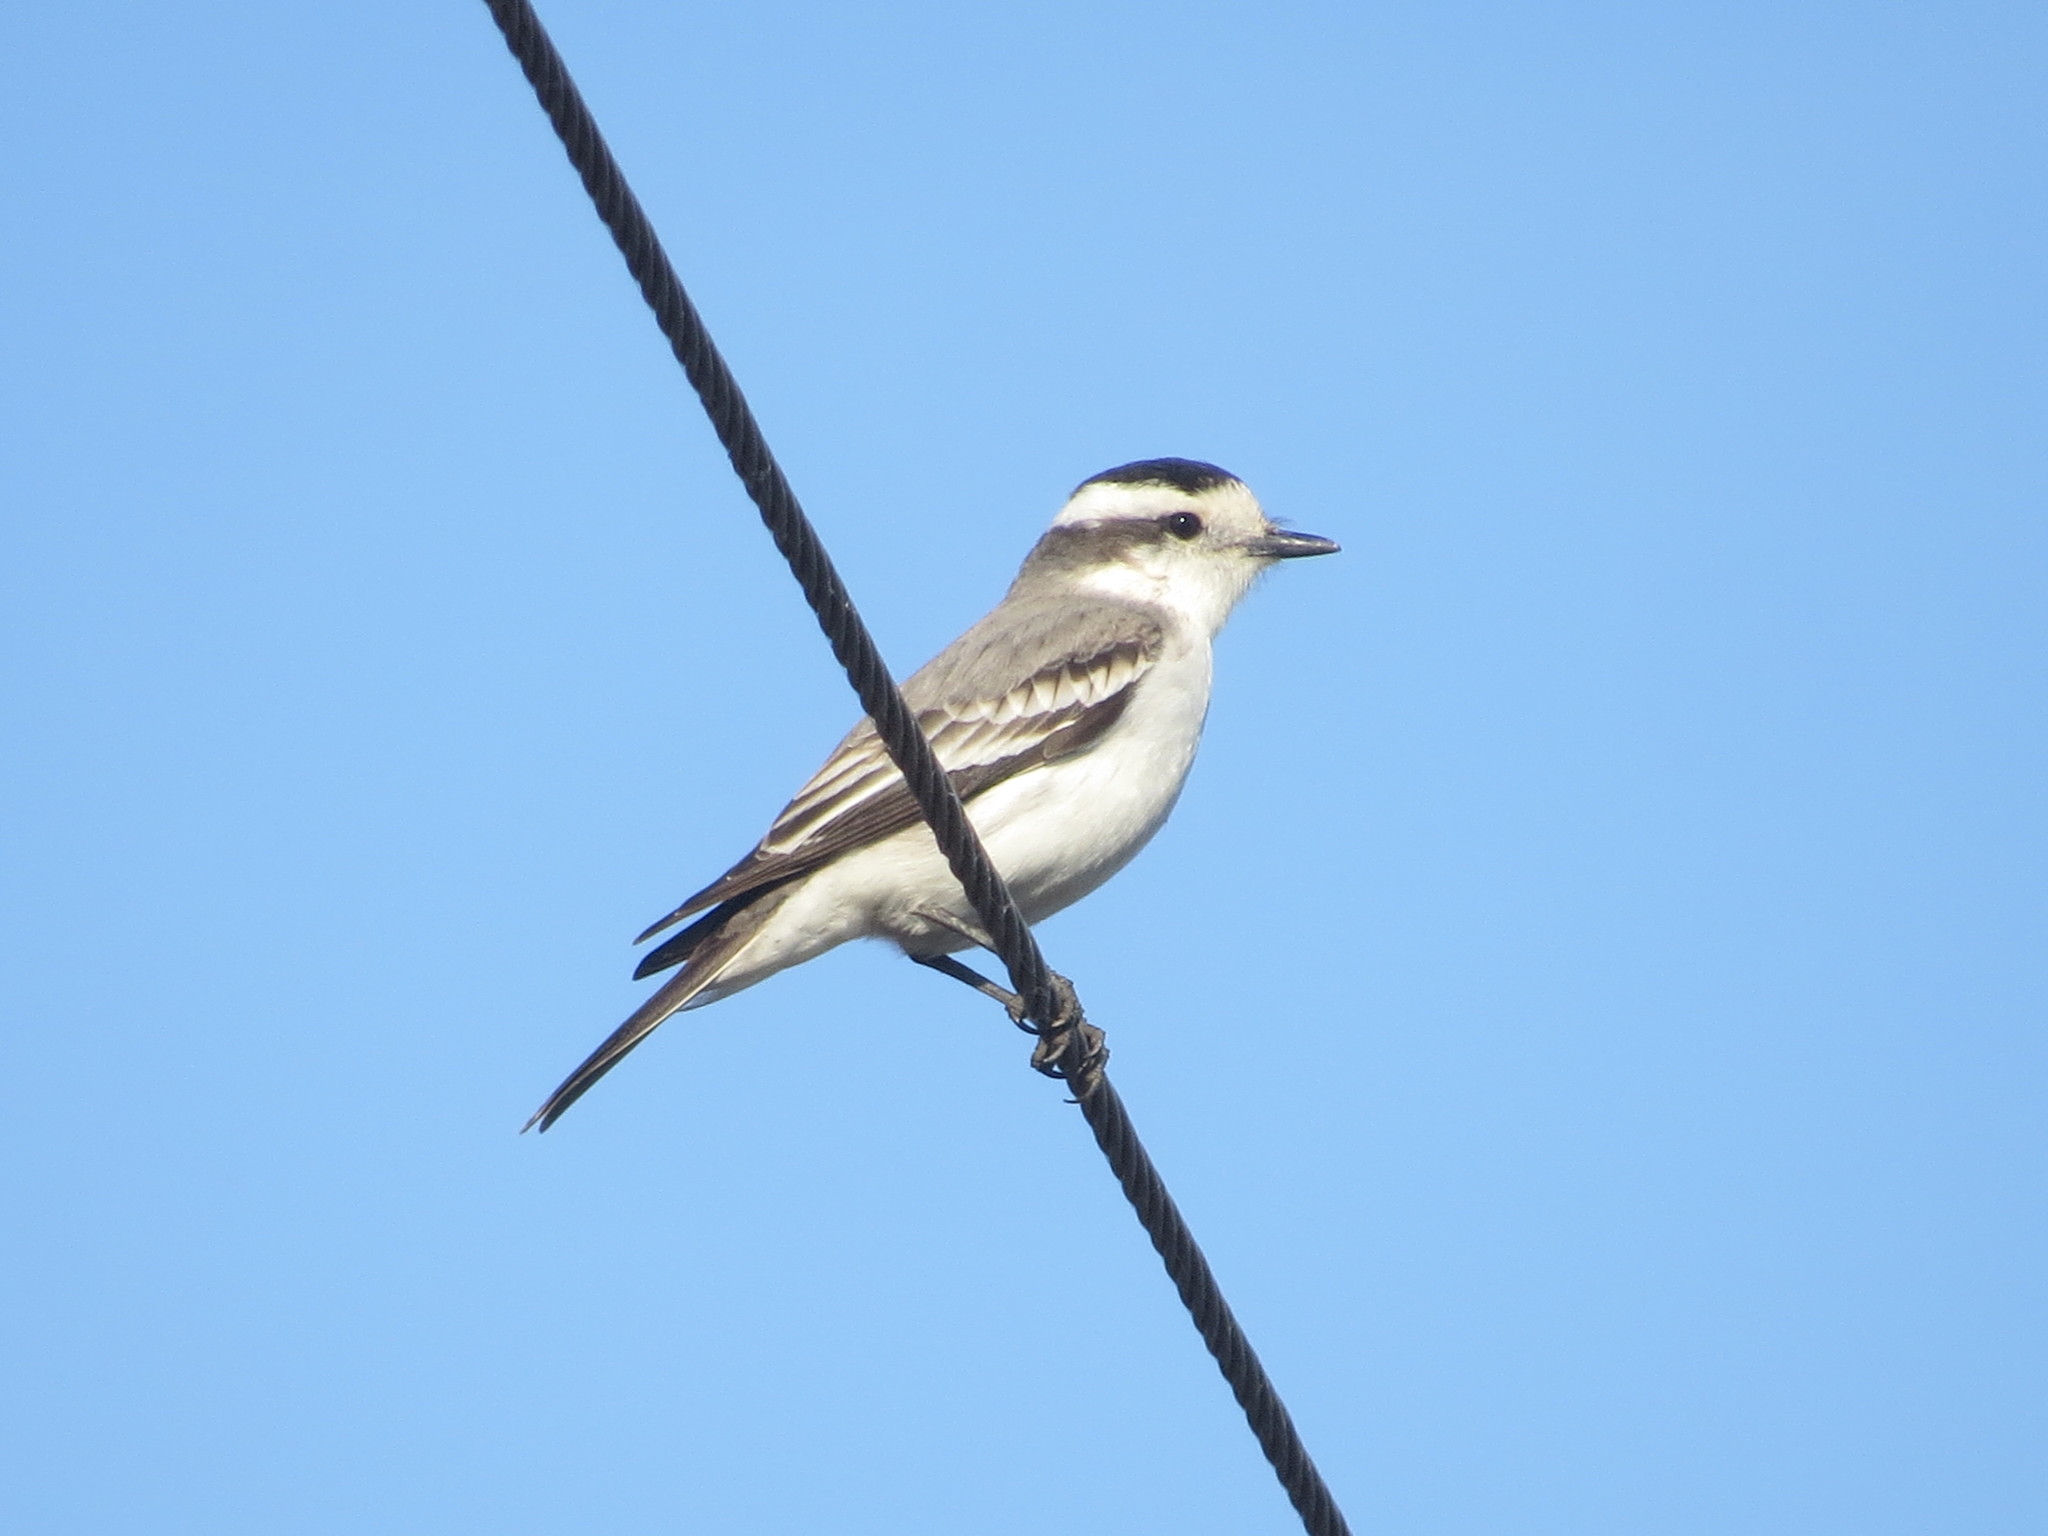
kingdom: Animalia
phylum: Chordata
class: Aves
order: Passeriformes
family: Tyrannidae
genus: Xolmis
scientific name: Xolmis coronatus
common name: Black-crowned monjita
